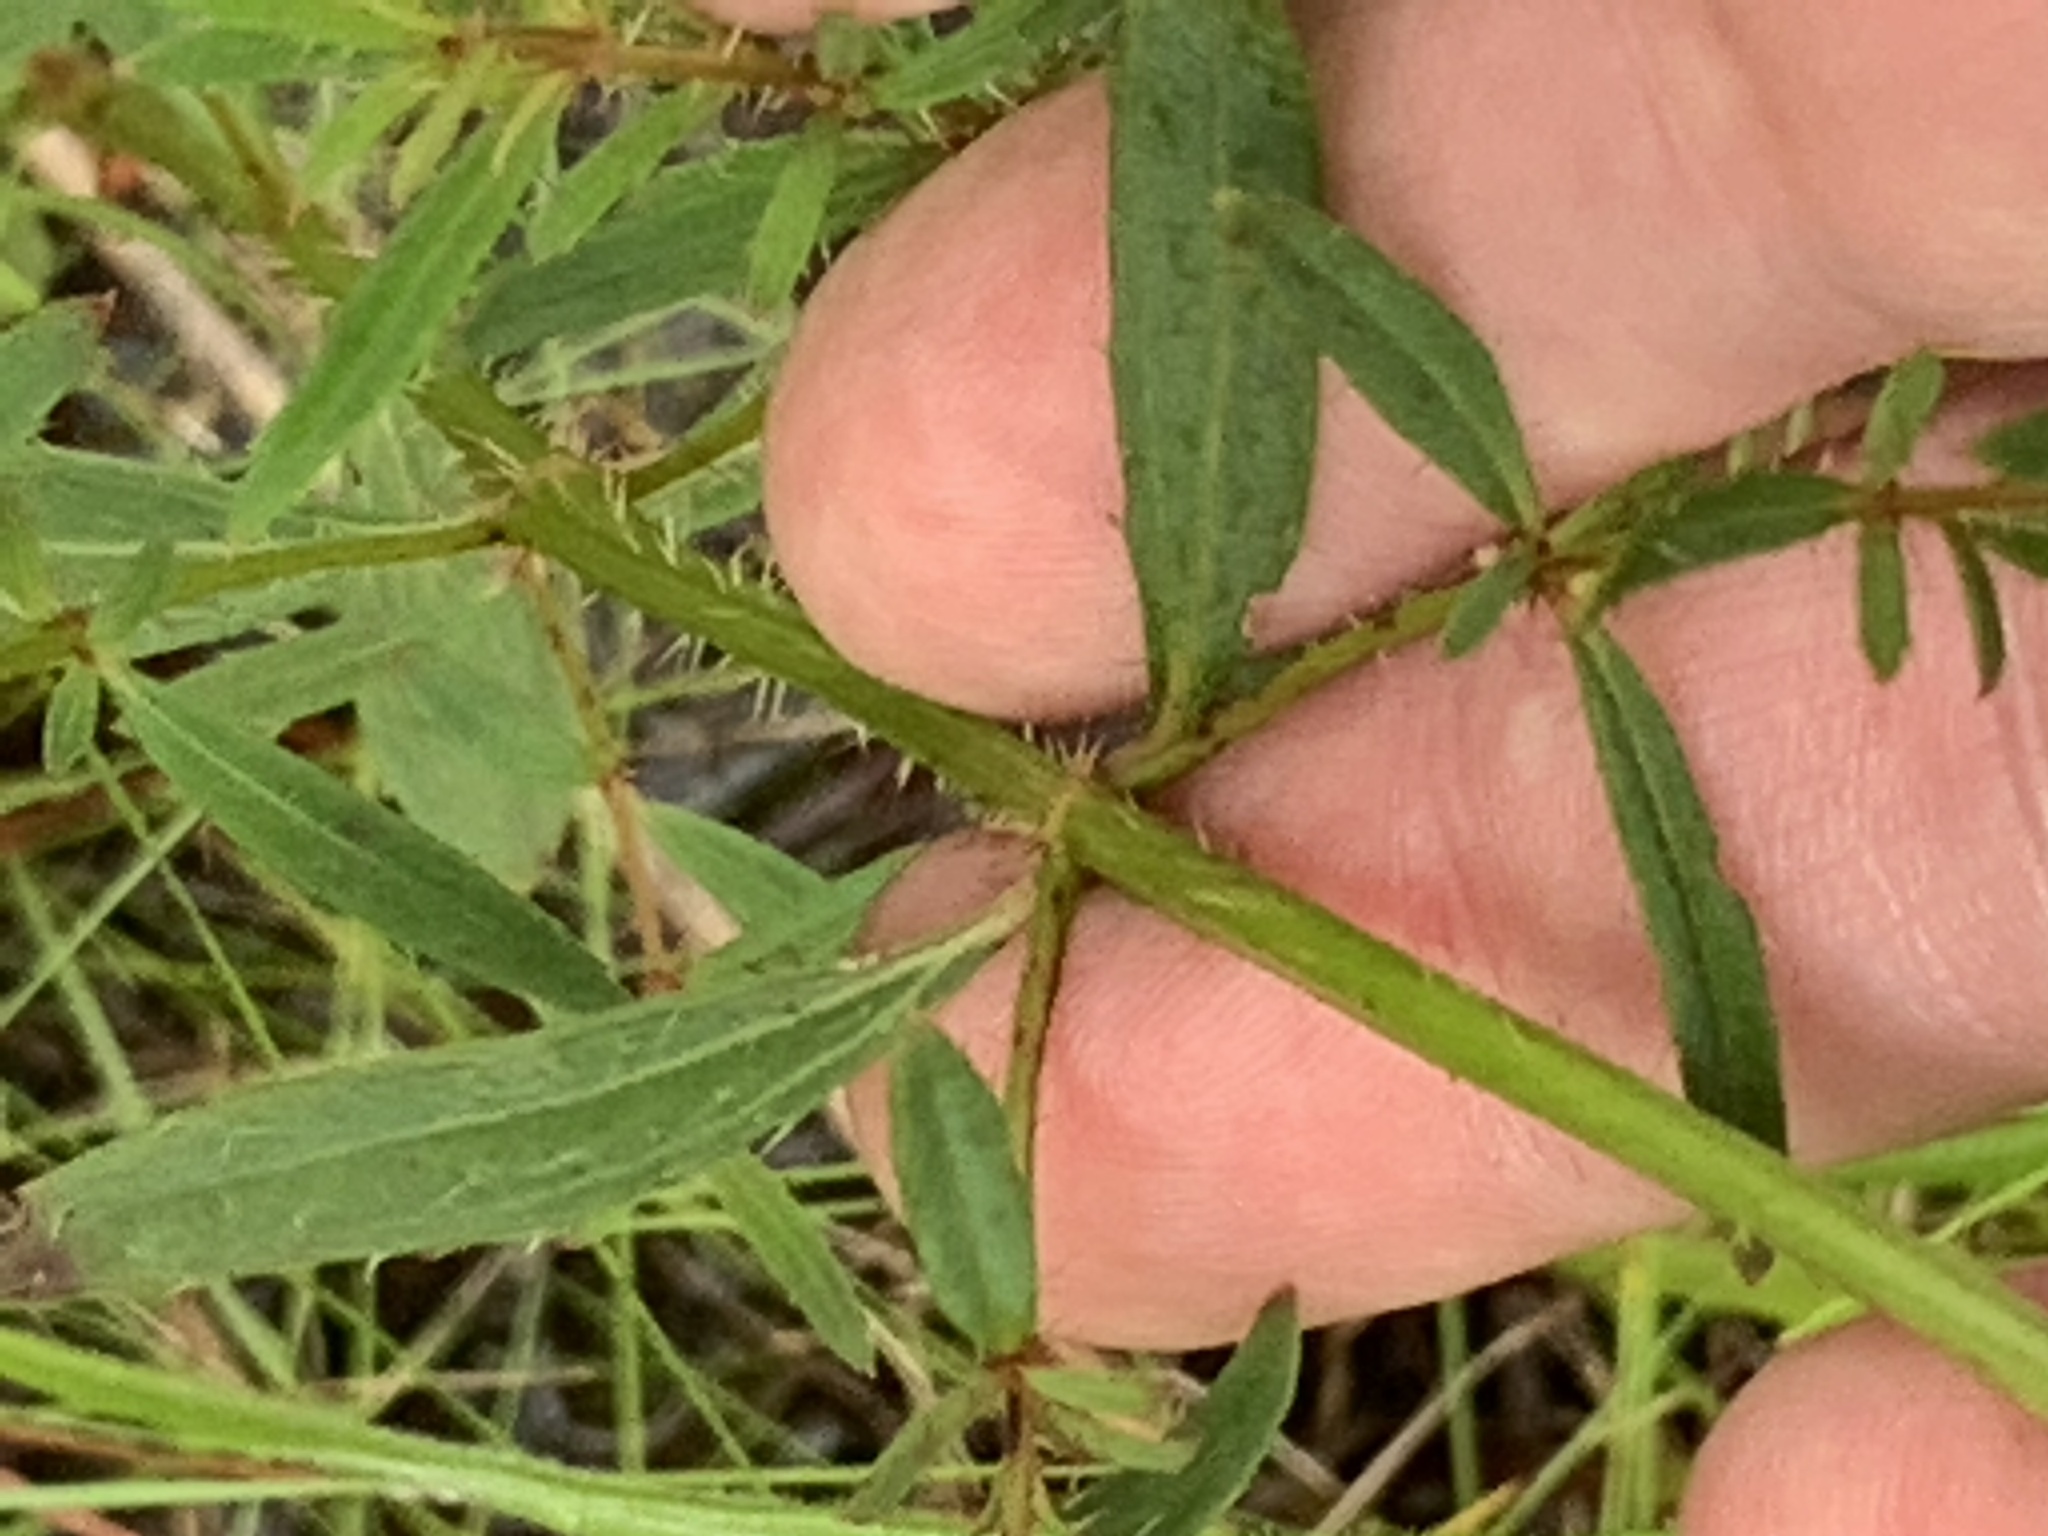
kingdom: Plantae
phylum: Tracheophyta
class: Magnoliopsida
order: Myrtales
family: Melastomataceae
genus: Rhexia
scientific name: Rhexia lutea
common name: Golden meadow-beauty
